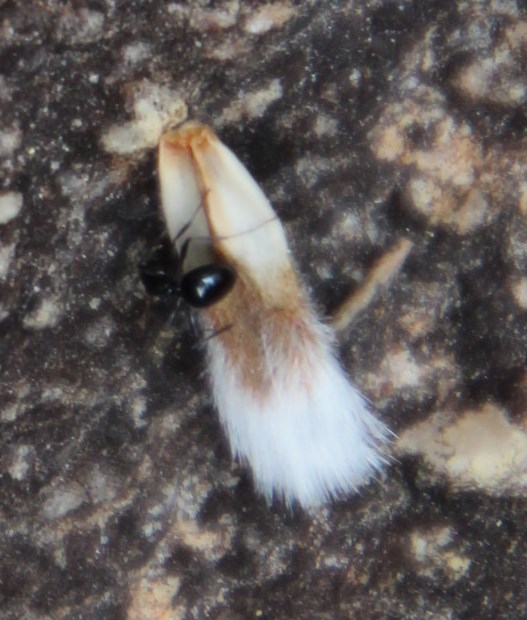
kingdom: Plantae
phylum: Tracheophyta
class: Magnoliopsida
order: Proteales
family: Proteaceae
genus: Leucadendron
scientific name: Leucadendron olens
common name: Yellow conebush
